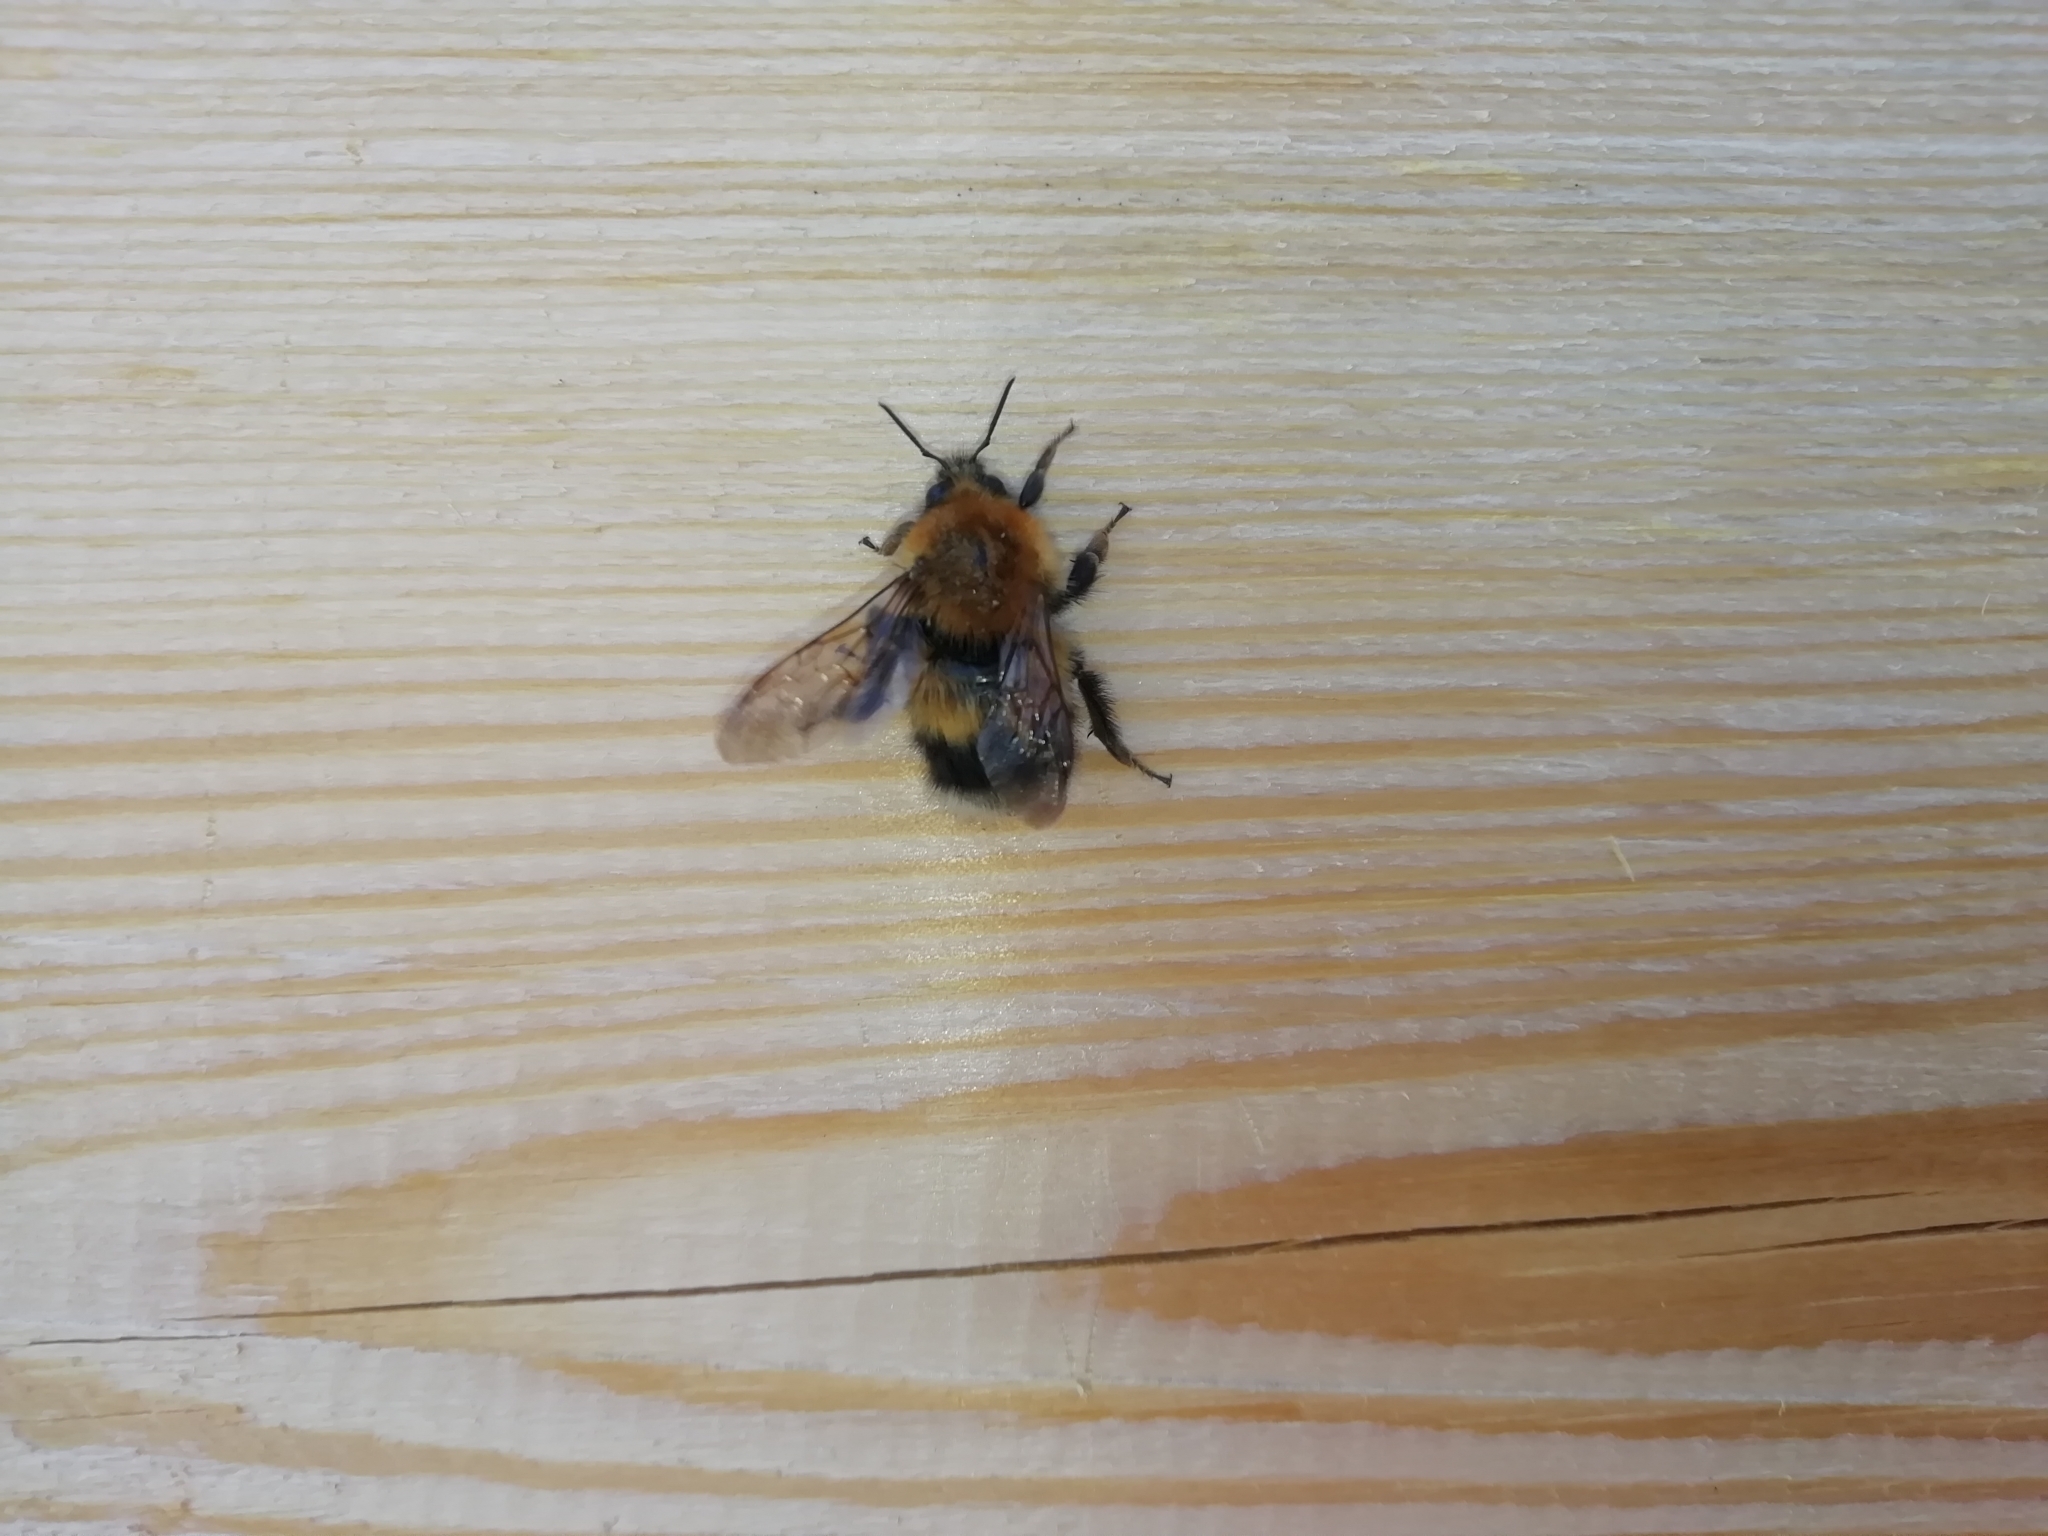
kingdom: Animalia
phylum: Arthropoda
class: Insecta
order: Hymenoptera
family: Apidae
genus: Bombus
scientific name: Bombus hypnorum
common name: New garden bumblebee
